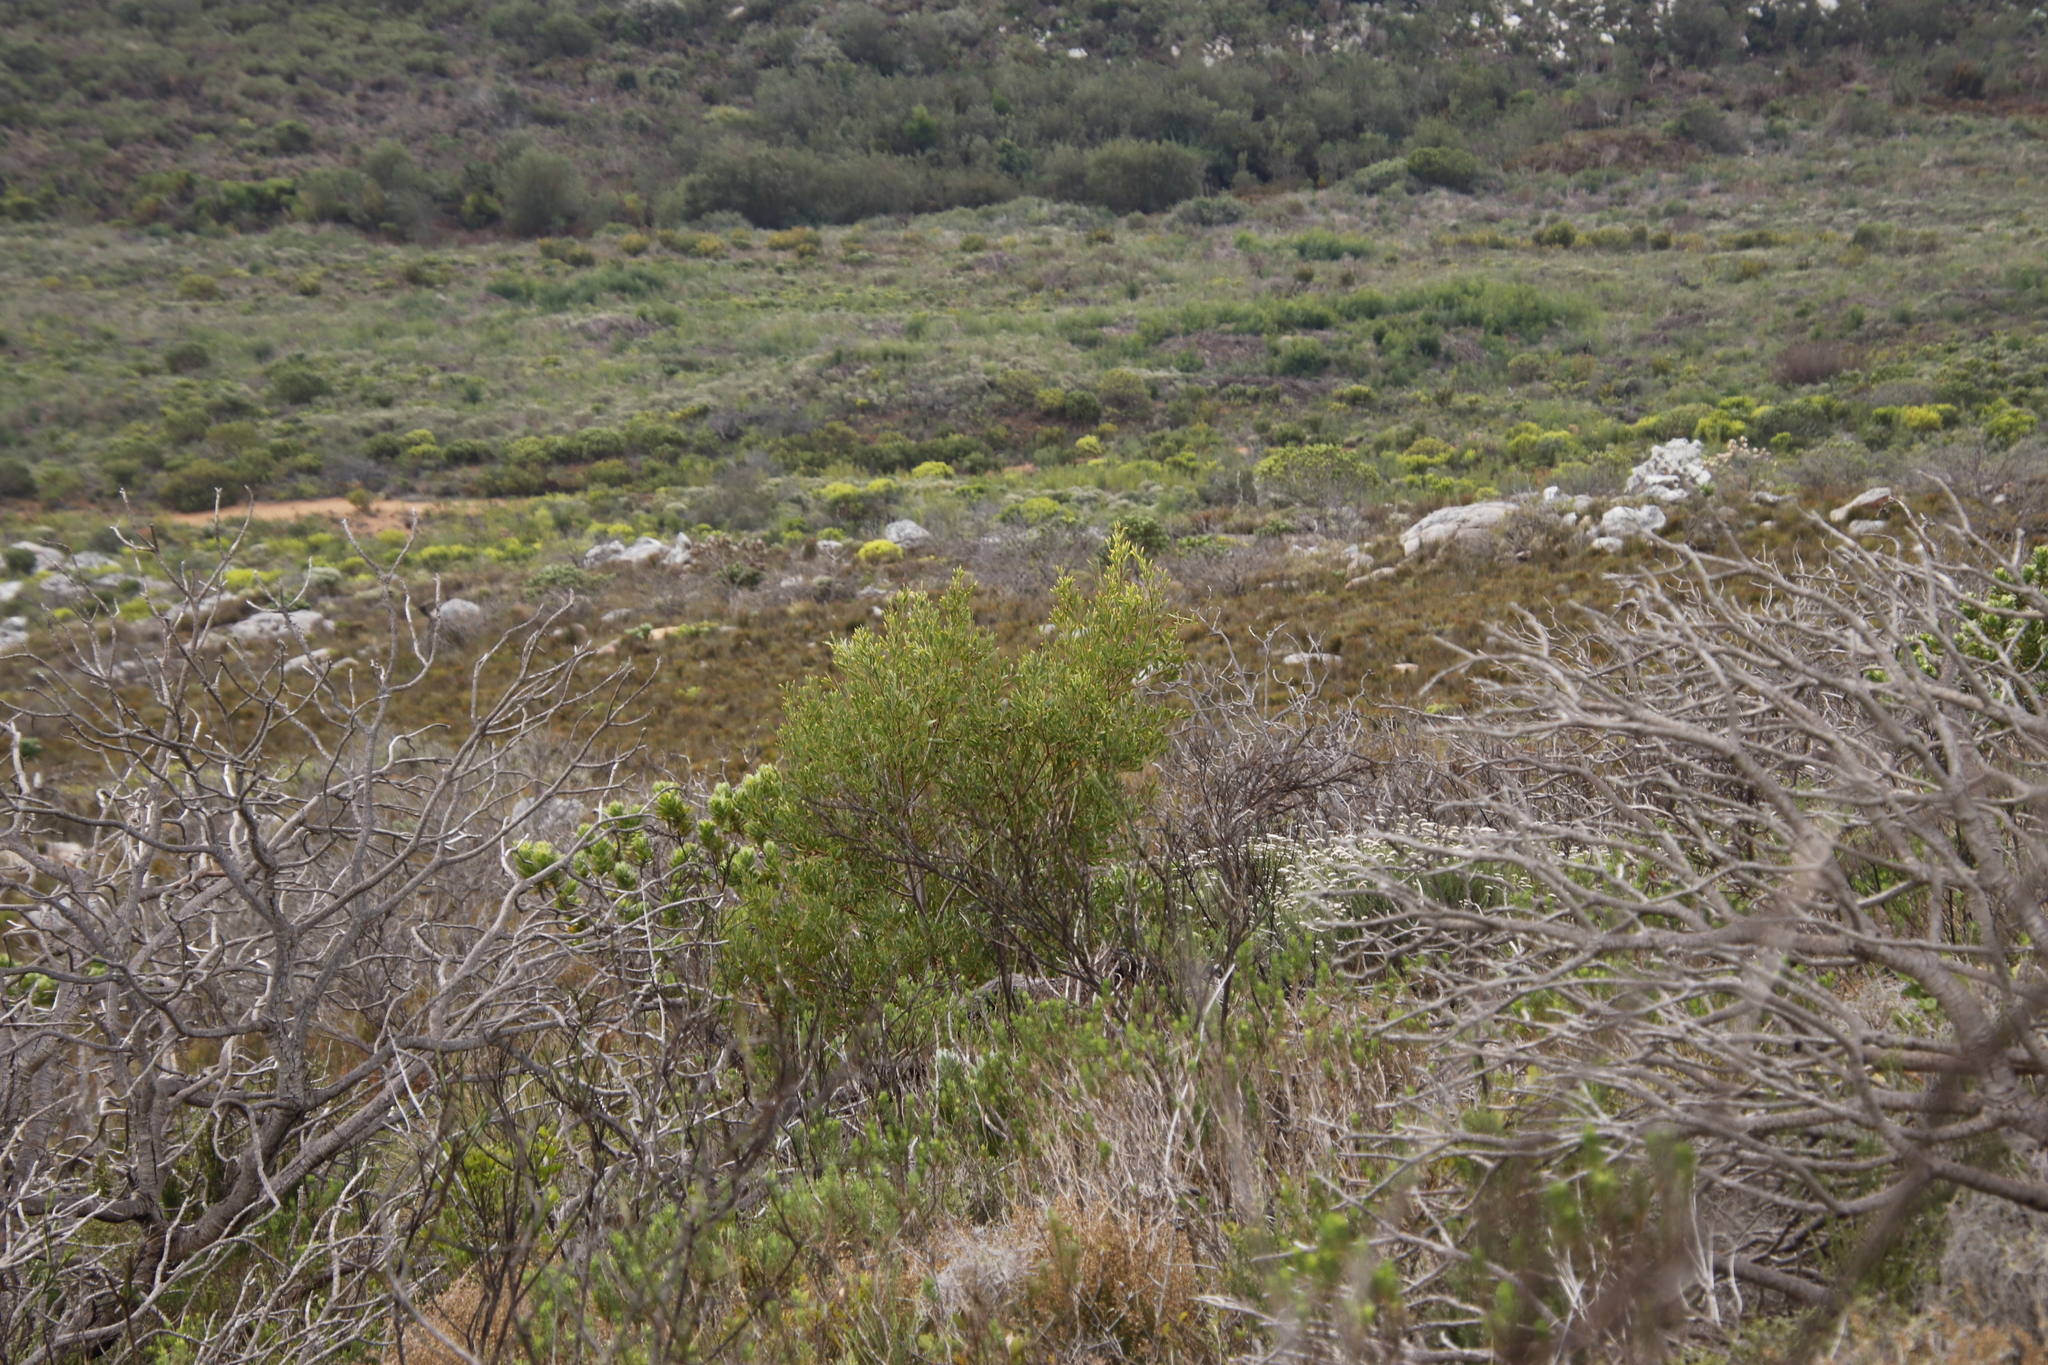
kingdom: Plantae
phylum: Tracheophyta
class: Magnoliopsida
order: Fabales
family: Fabaceae
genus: Acacia
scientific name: Acacia cyclops
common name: Coastal wattle
